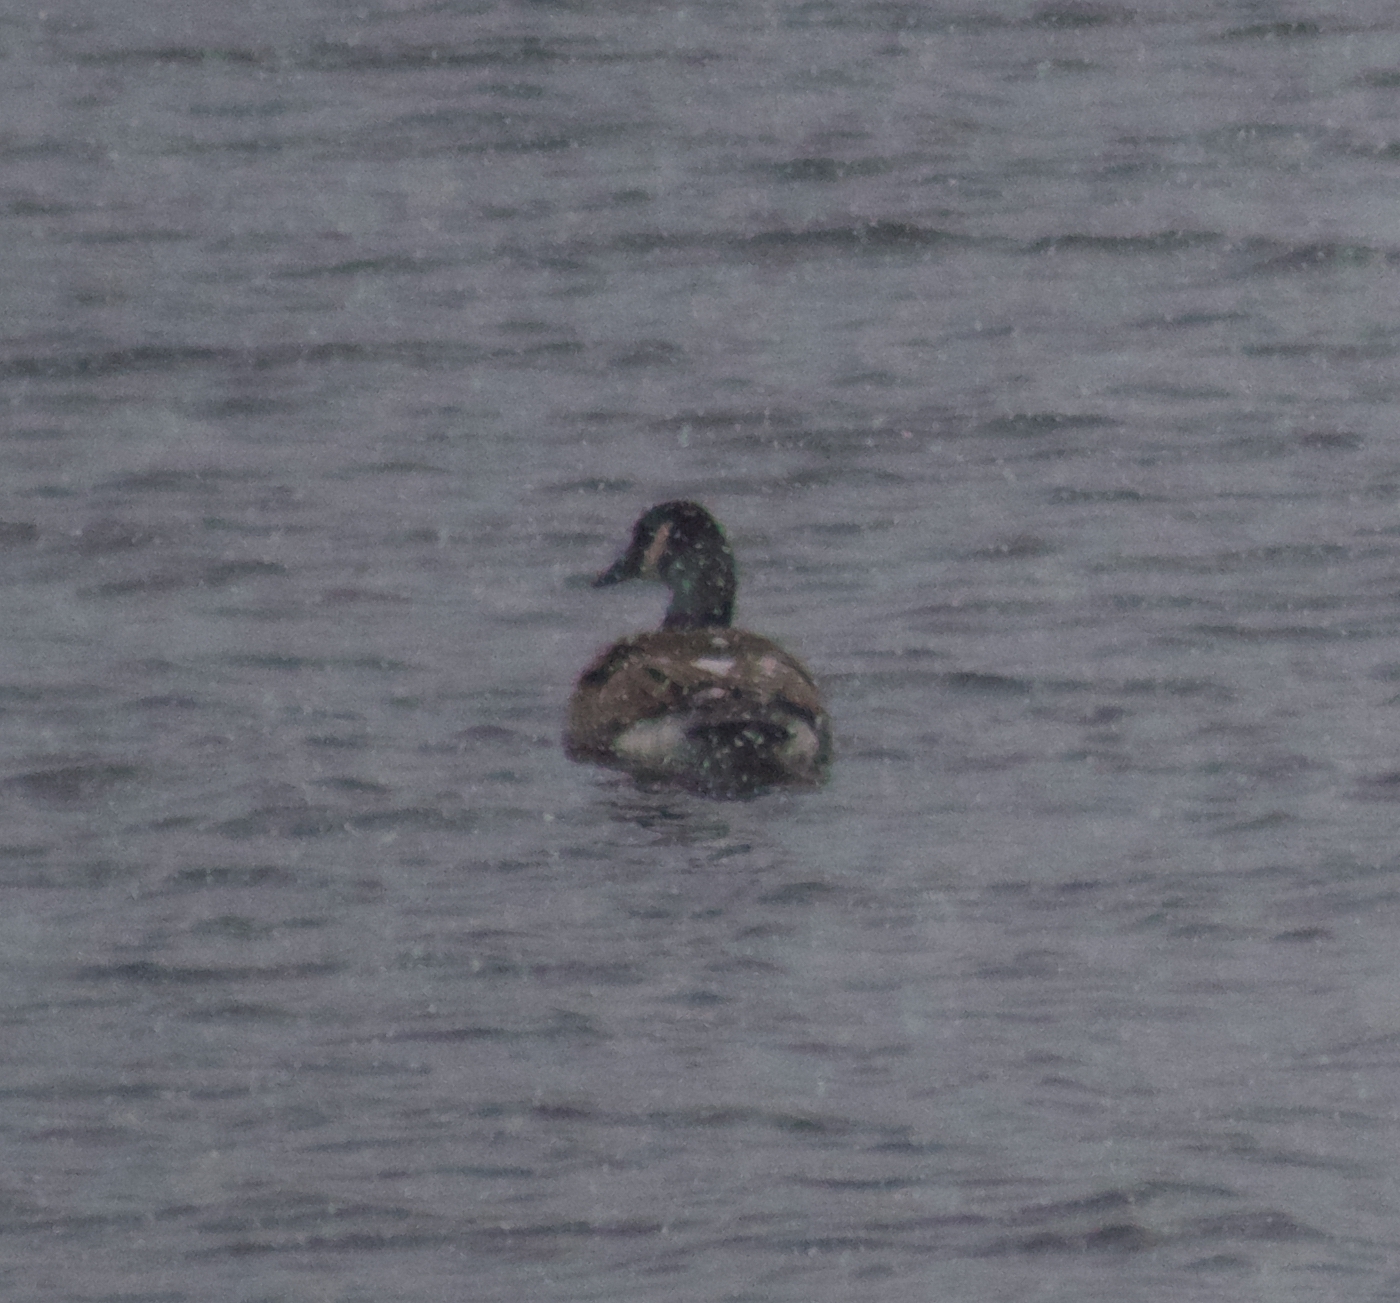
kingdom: Animalia
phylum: Chordata
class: Aves
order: Anseriformes
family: Anatidae
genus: Branta
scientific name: Branta canadensis
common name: Canada goose
